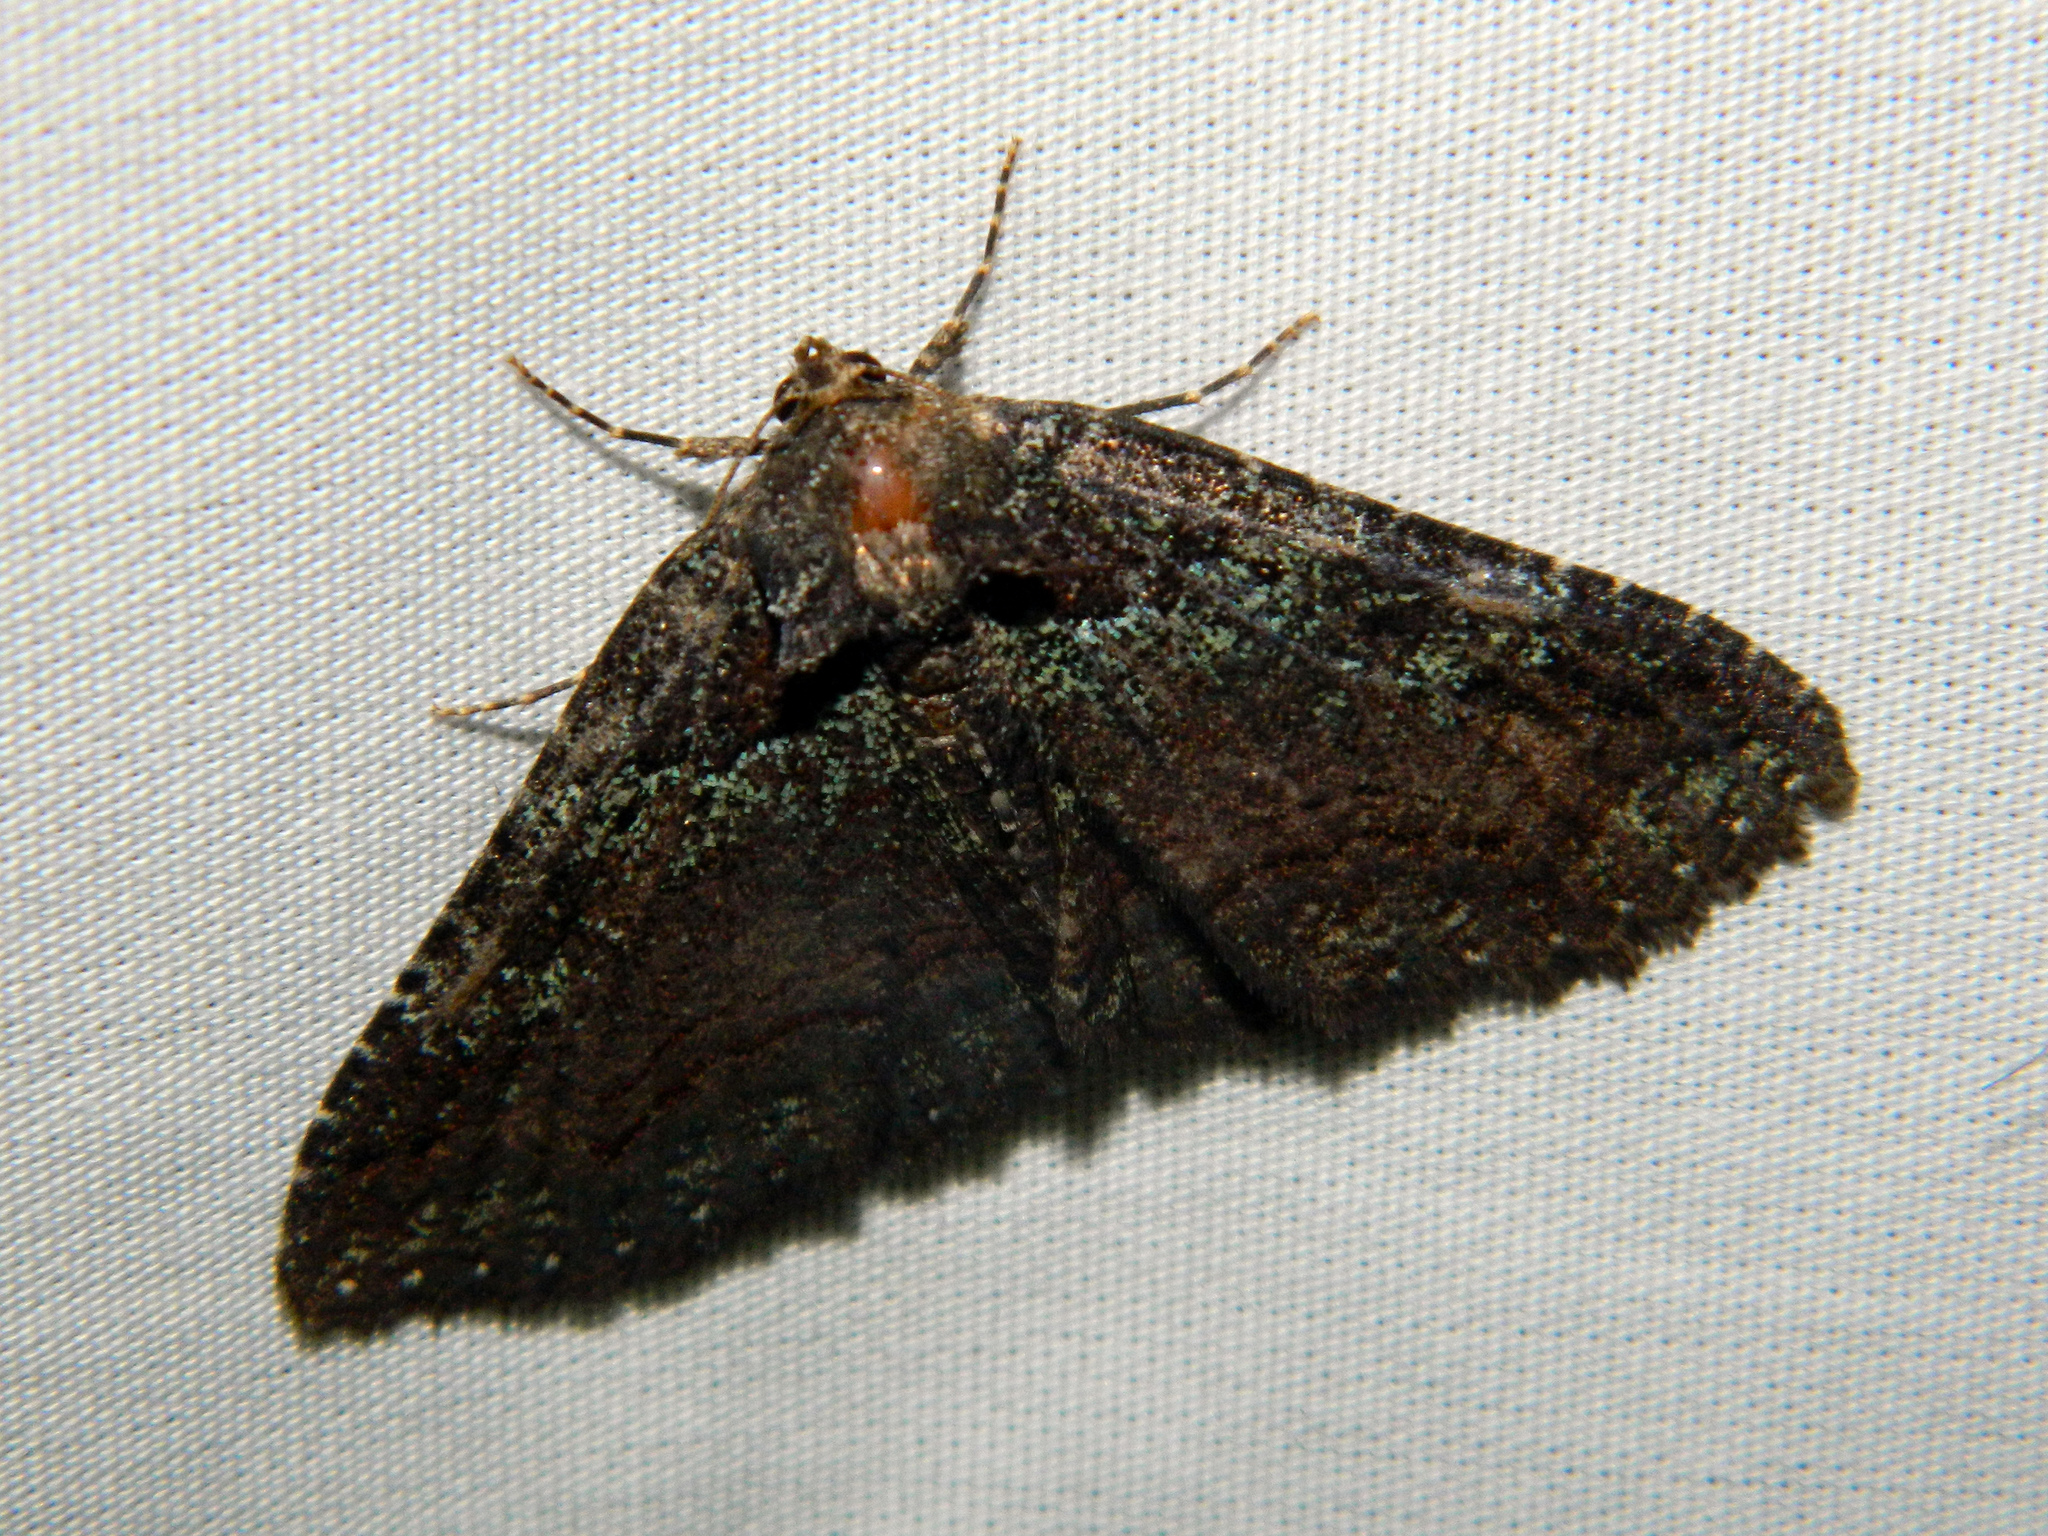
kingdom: Animalia
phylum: Arthropoda
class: Insecta
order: Lepidoptera
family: Erebidae
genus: Zale
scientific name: Zale aeruginosa
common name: Green-dusted zale moth
